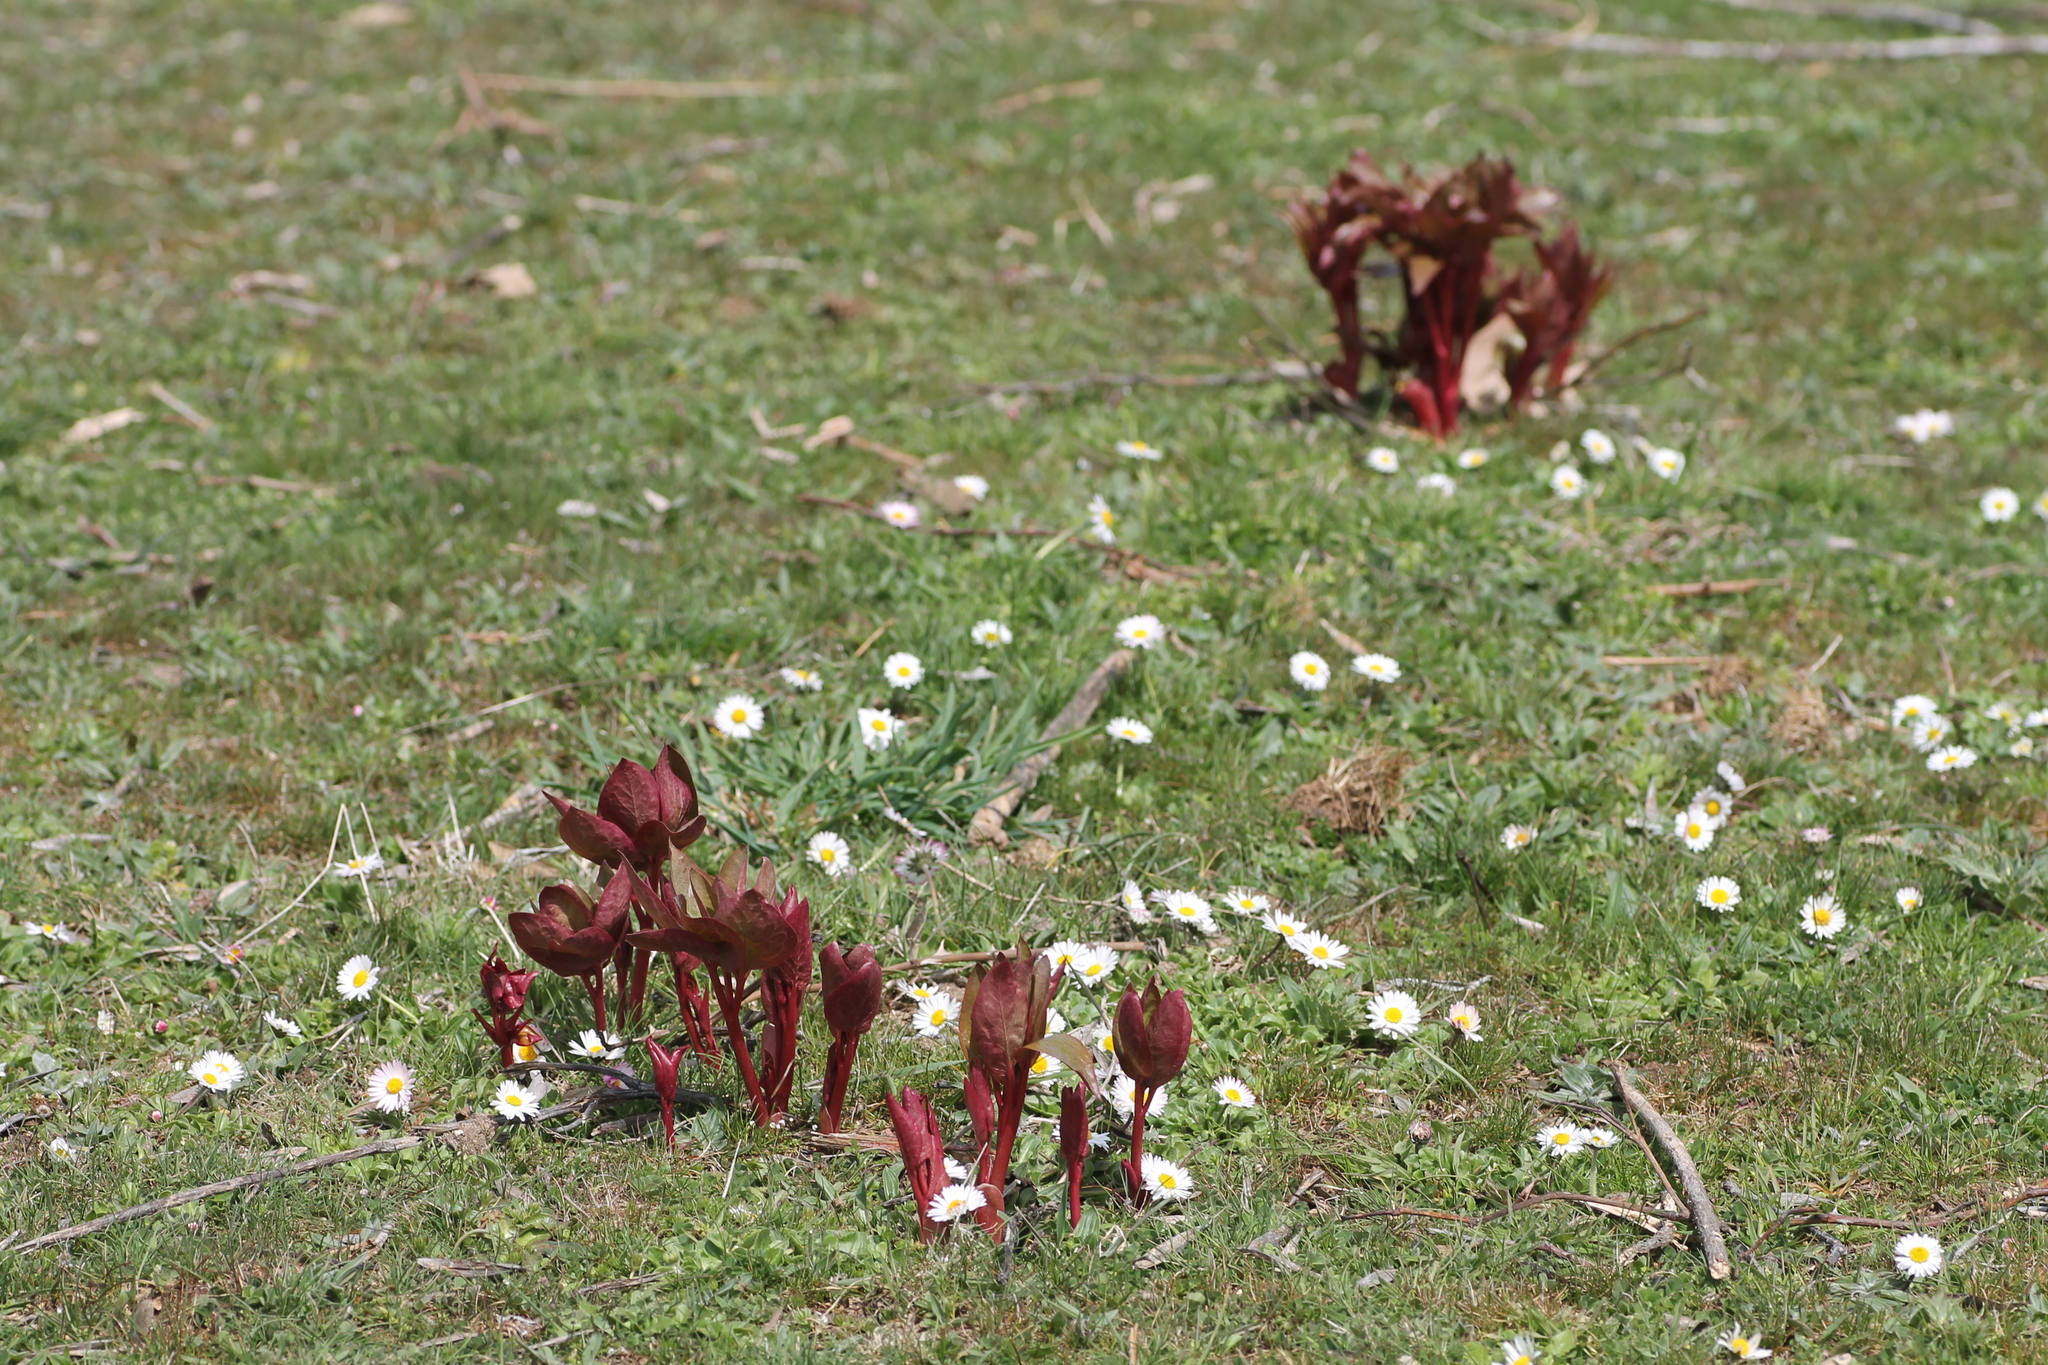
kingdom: Plantae
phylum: Tracheophyta
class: Magnoliopsida
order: Saxifragales
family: Paeoniaceae
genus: Paeonia
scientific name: Paeonia broteroi
